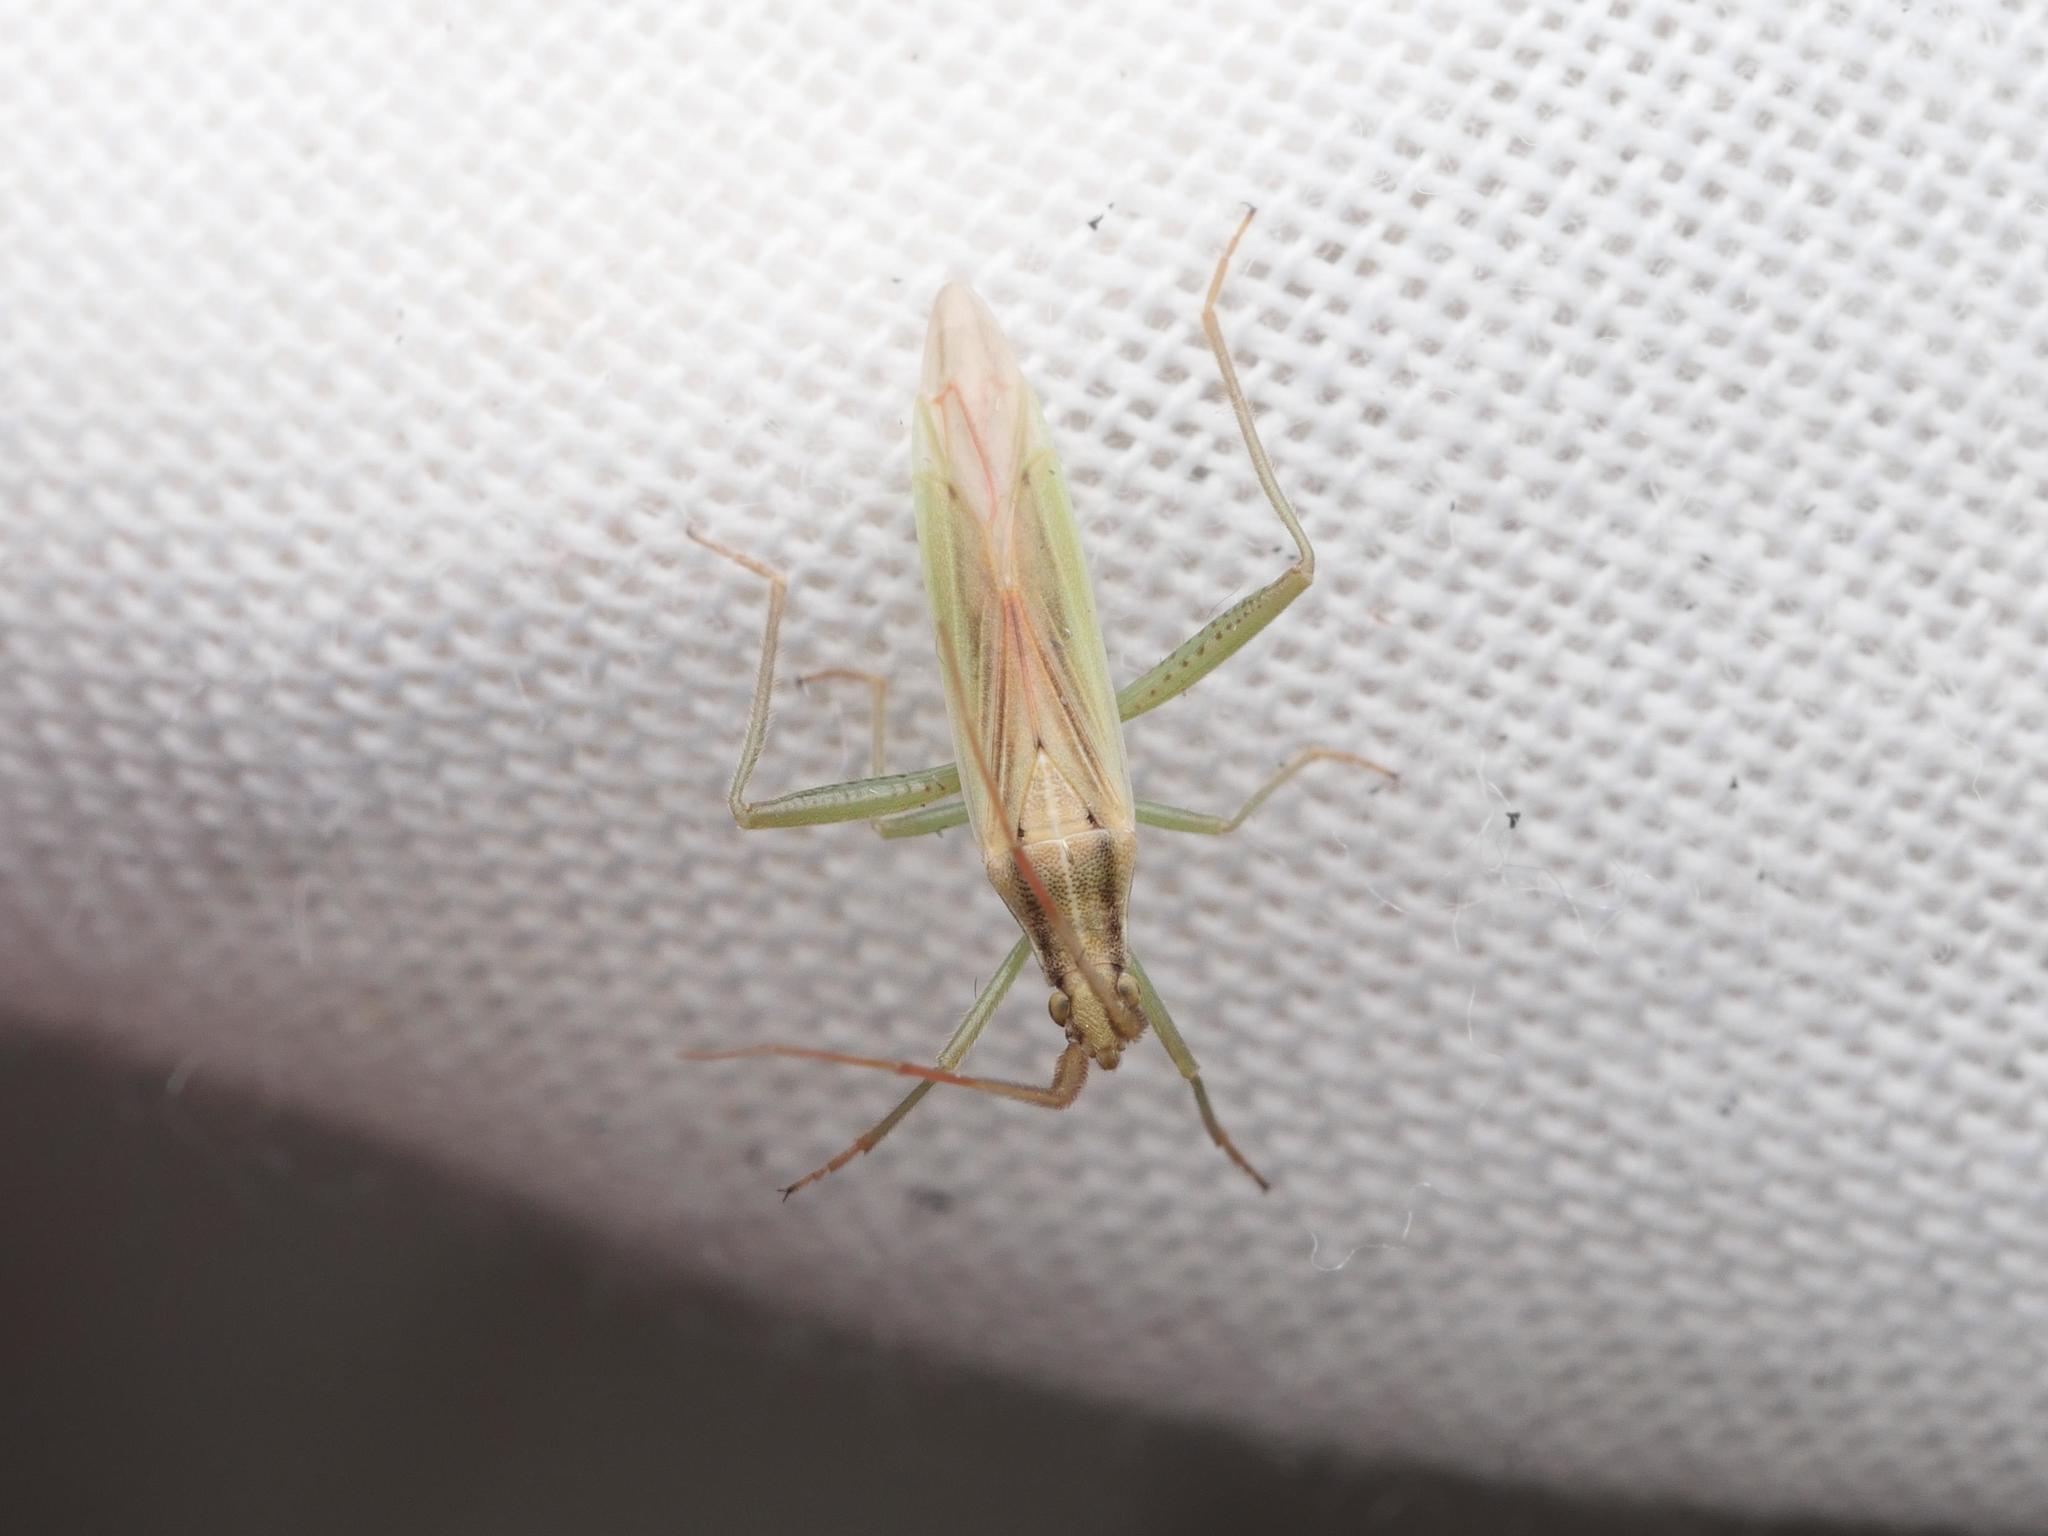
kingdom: Animalia
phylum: Arthropoda
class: Insecta
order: Hemiptera
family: Miridae
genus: Stenodema
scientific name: Stenodema laevigata
